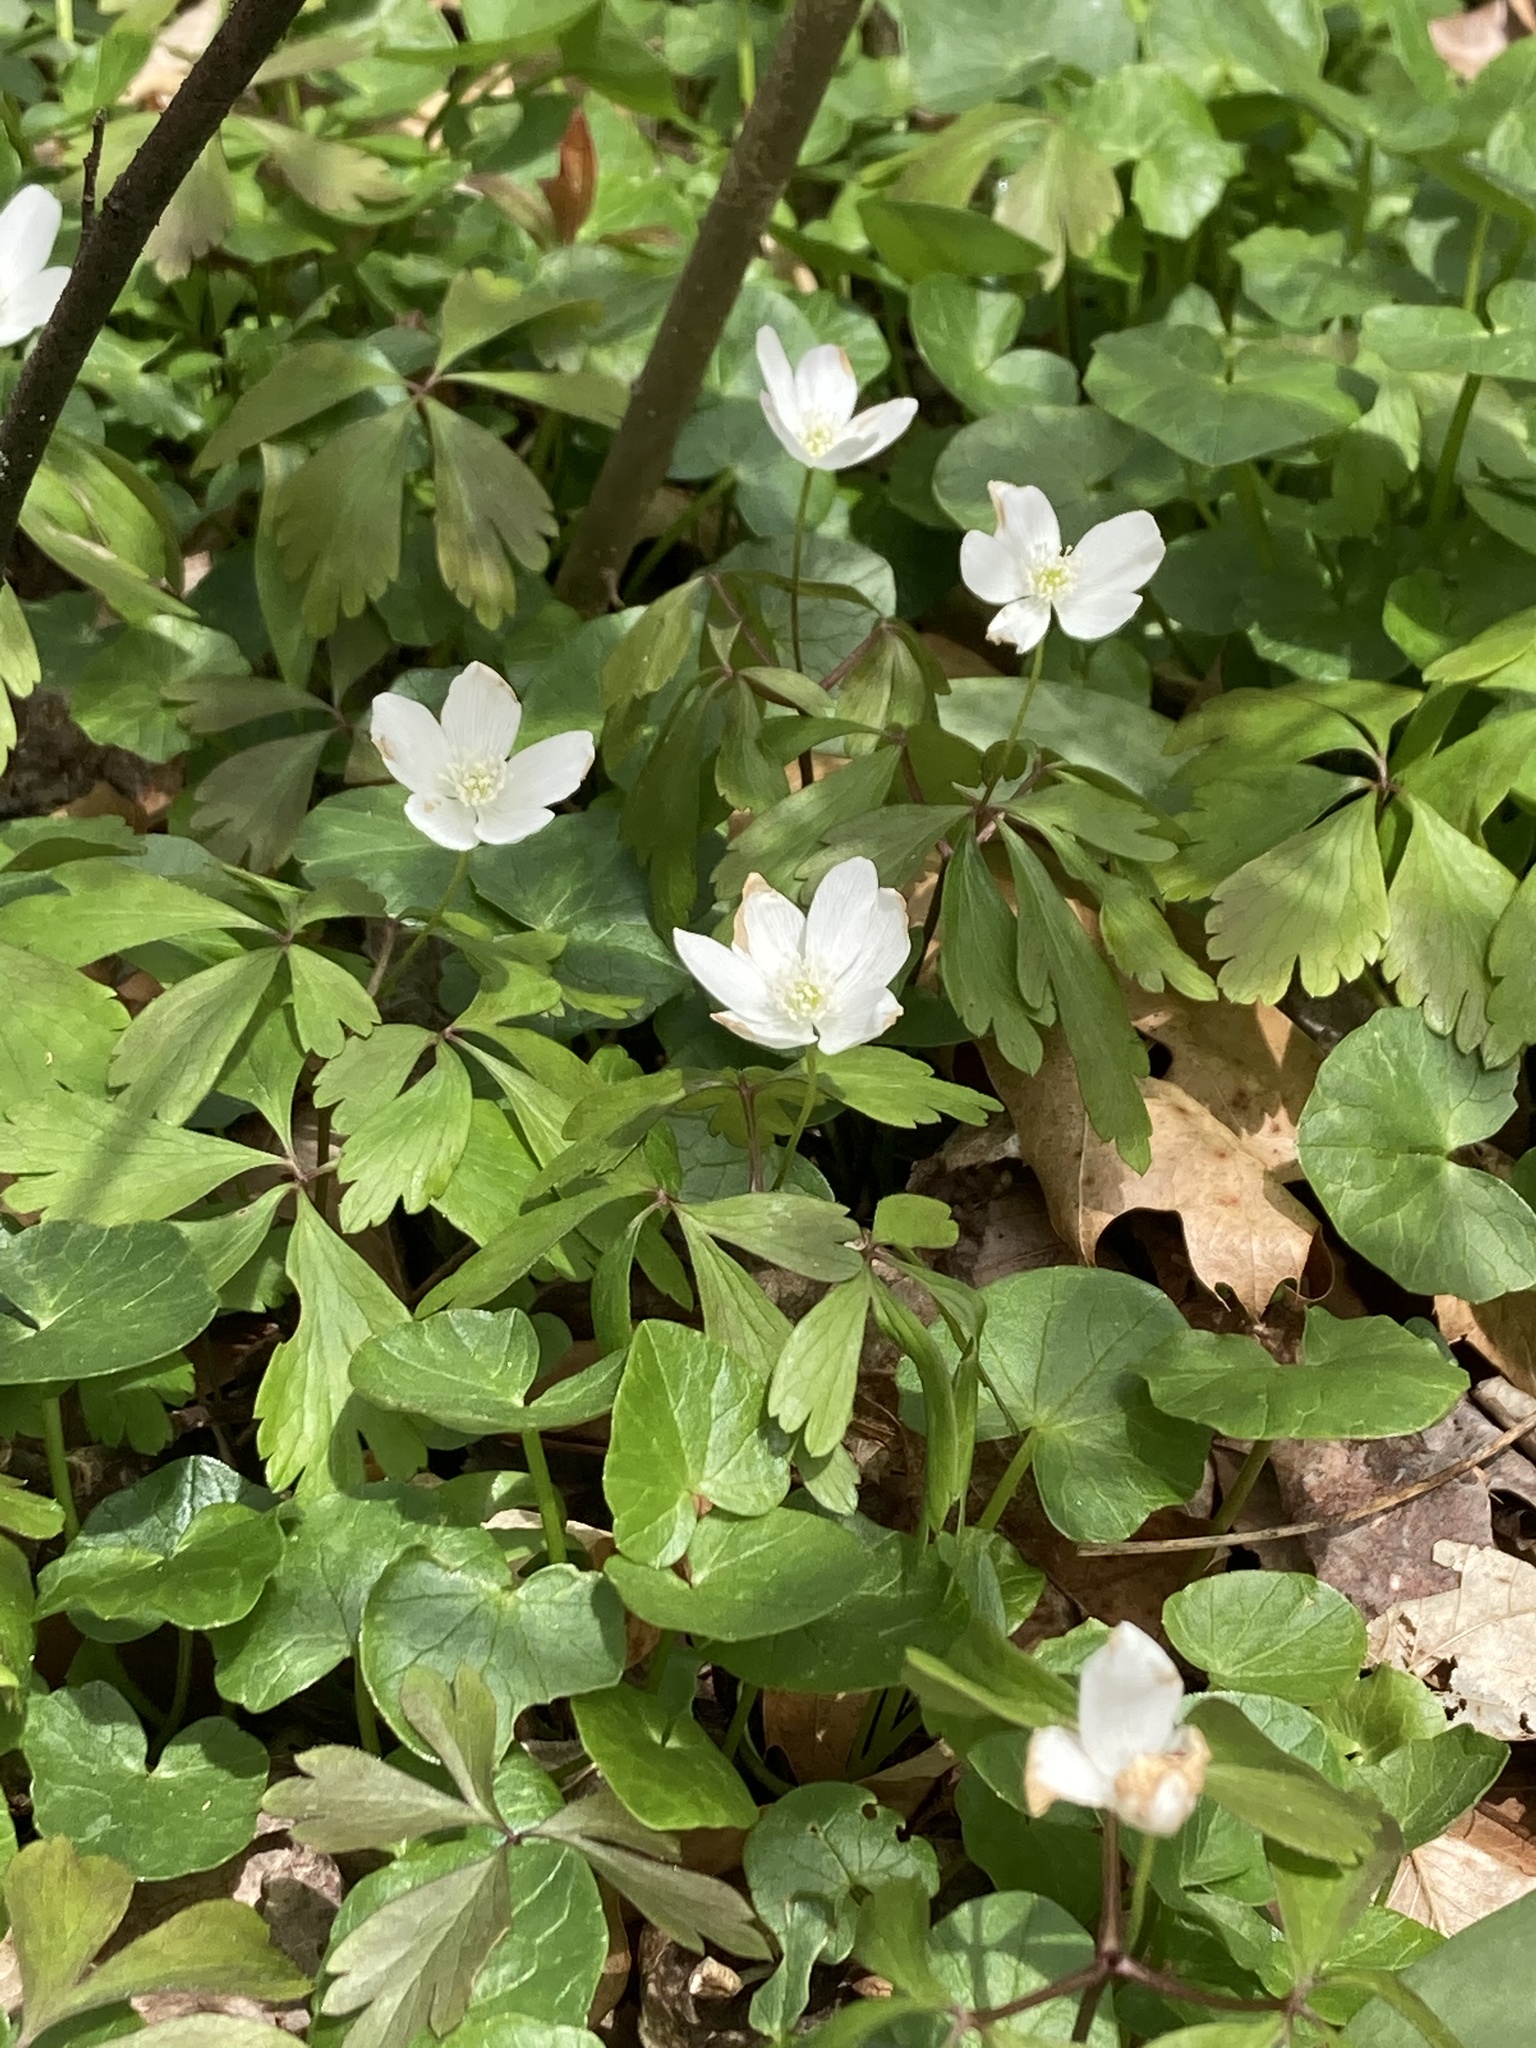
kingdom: Plantae
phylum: Tracheophyta
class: Magnoliopsida
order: Ranunculales
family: Ranunculaceae
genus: Anemone
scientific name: Anemone quinquefolia
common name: Wood anemone
